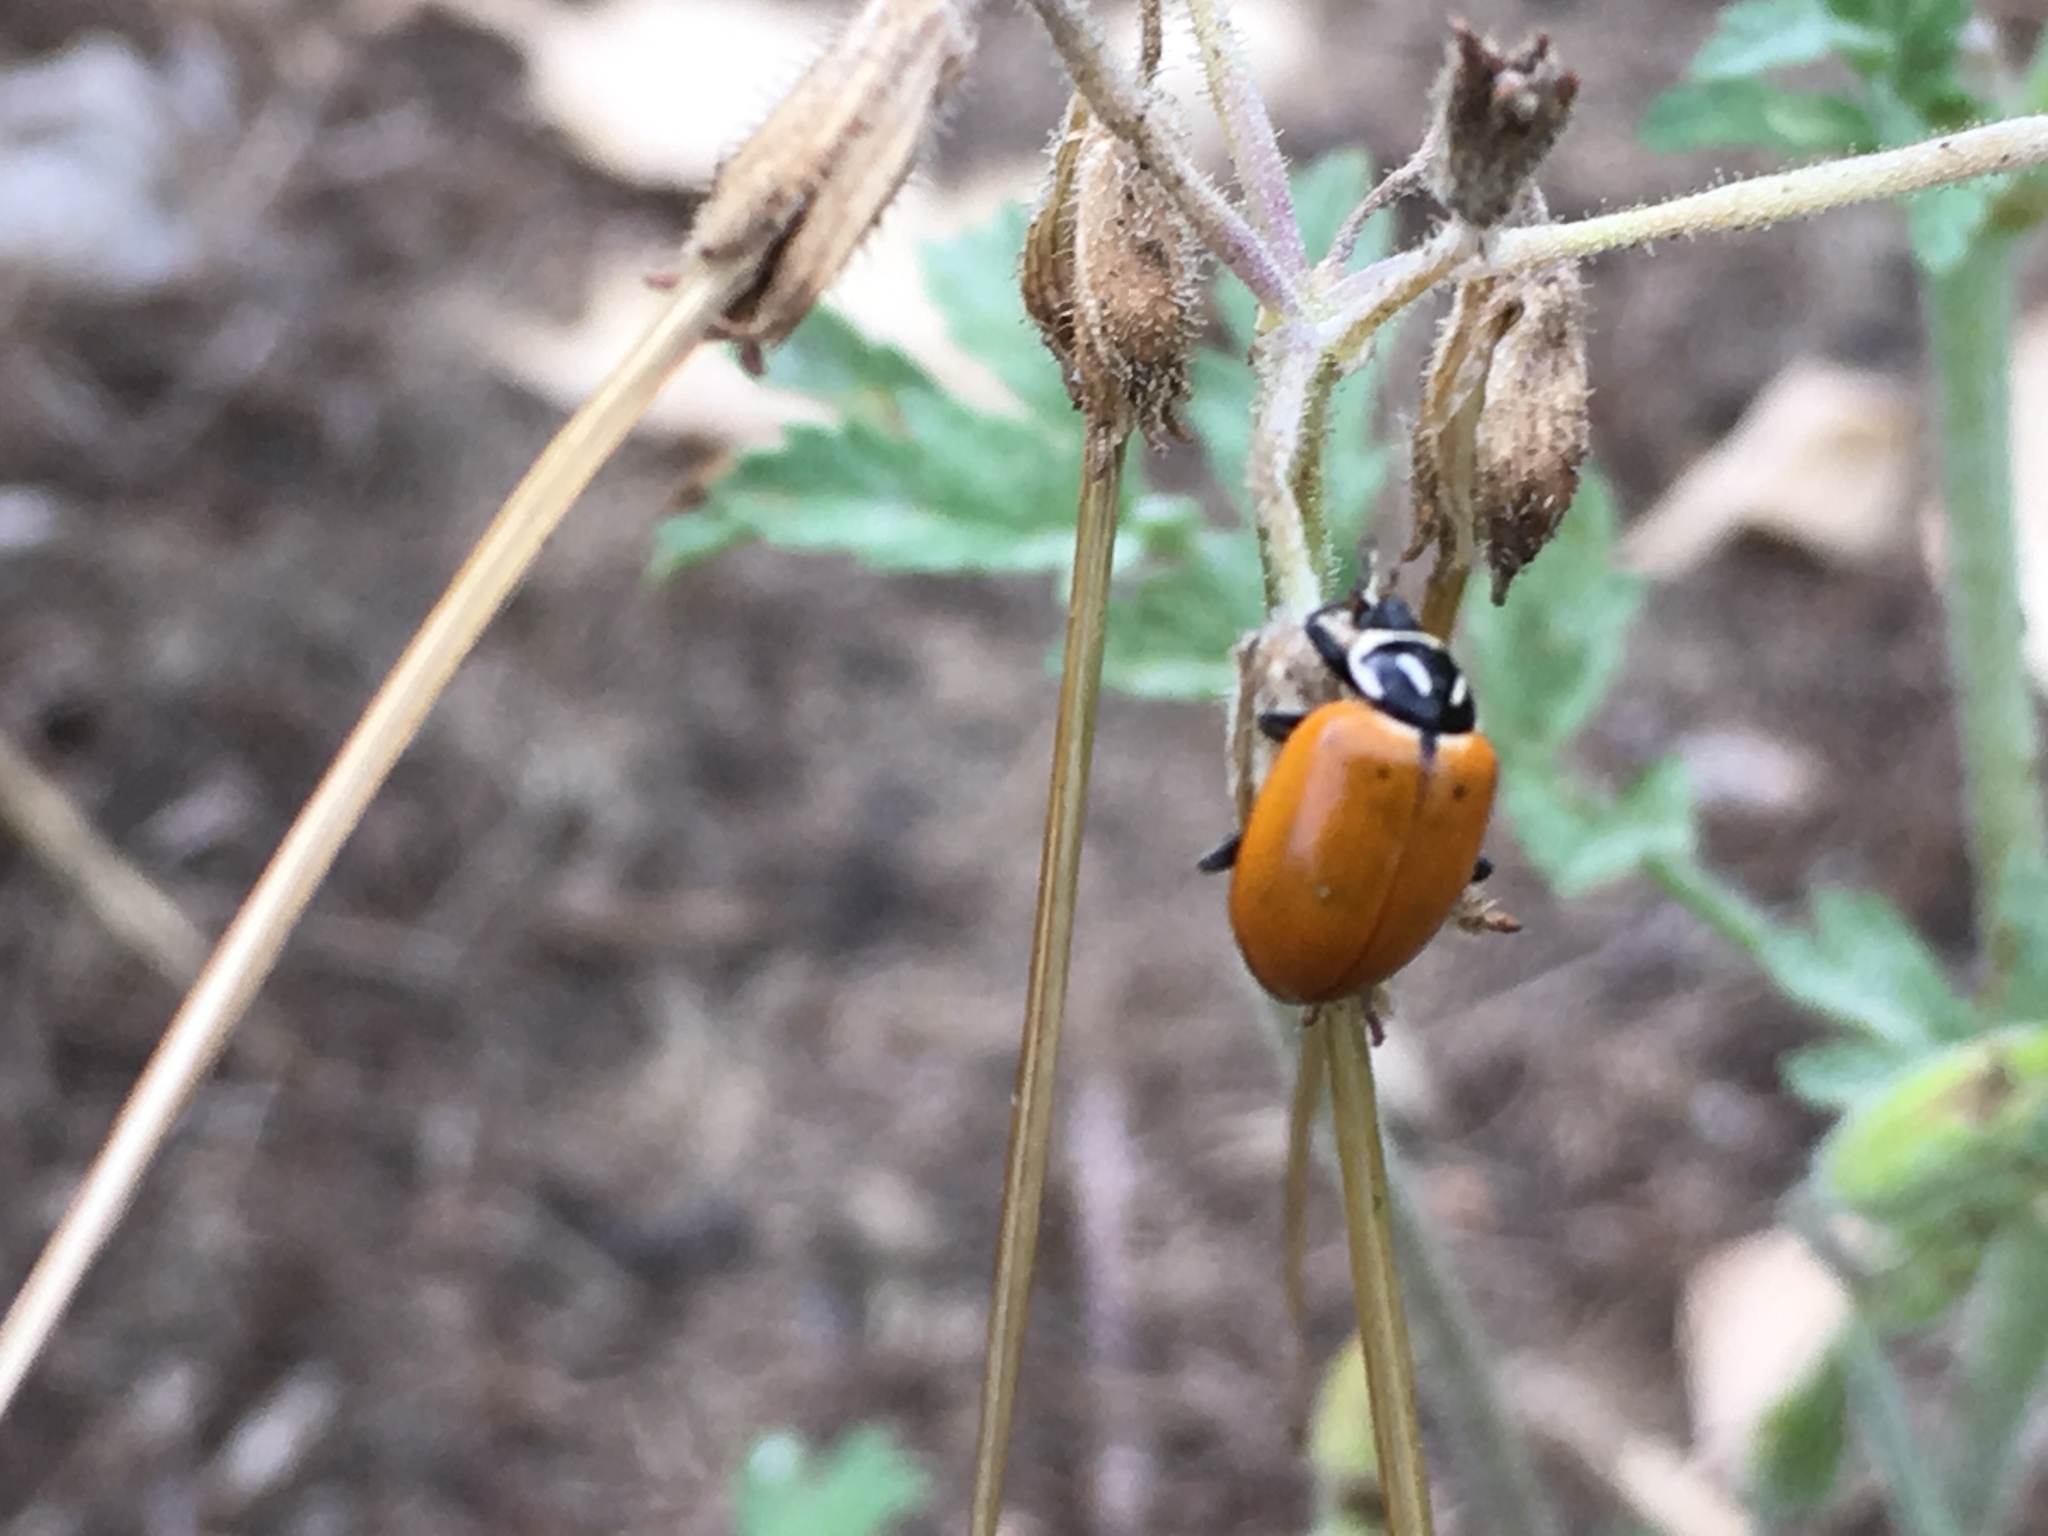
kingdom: Animalia
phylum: Arthropoda
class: Insecta
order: Coleoptera
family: Coccinellidae
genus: Hippodamia
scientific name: Hippodamia convergens
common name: Convergent lady beetle
